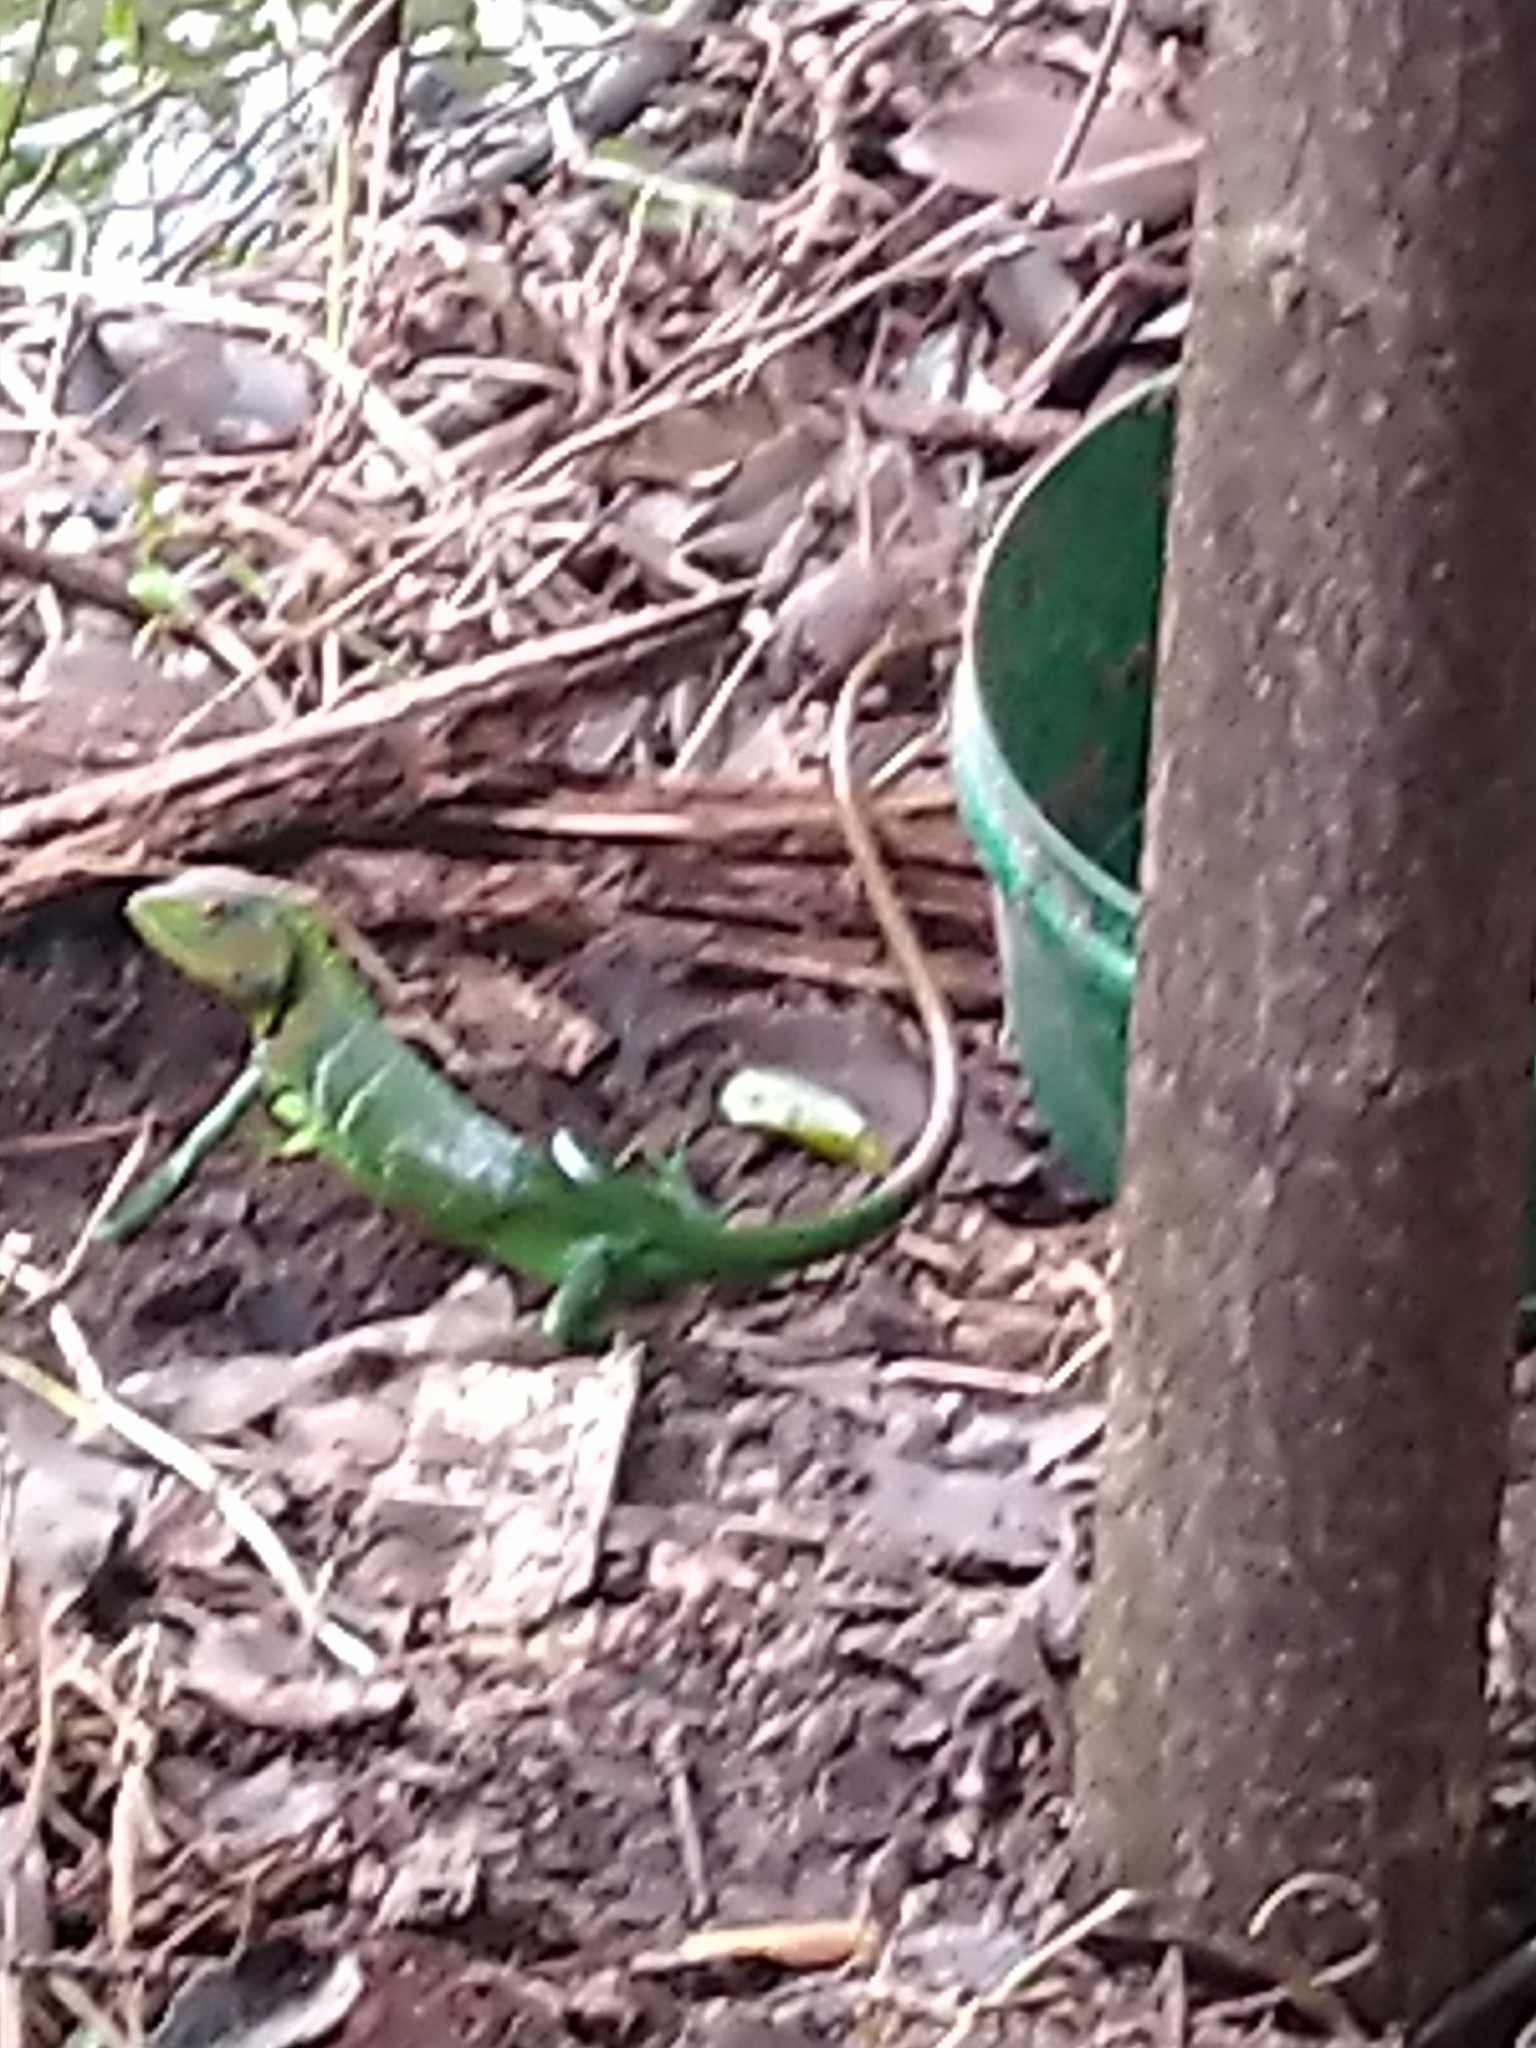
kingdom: Animalia
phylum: Chordata
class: Squamata
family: Agamidae
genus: Calotes
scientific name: Calotes calotes
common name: Common green forest lizard
